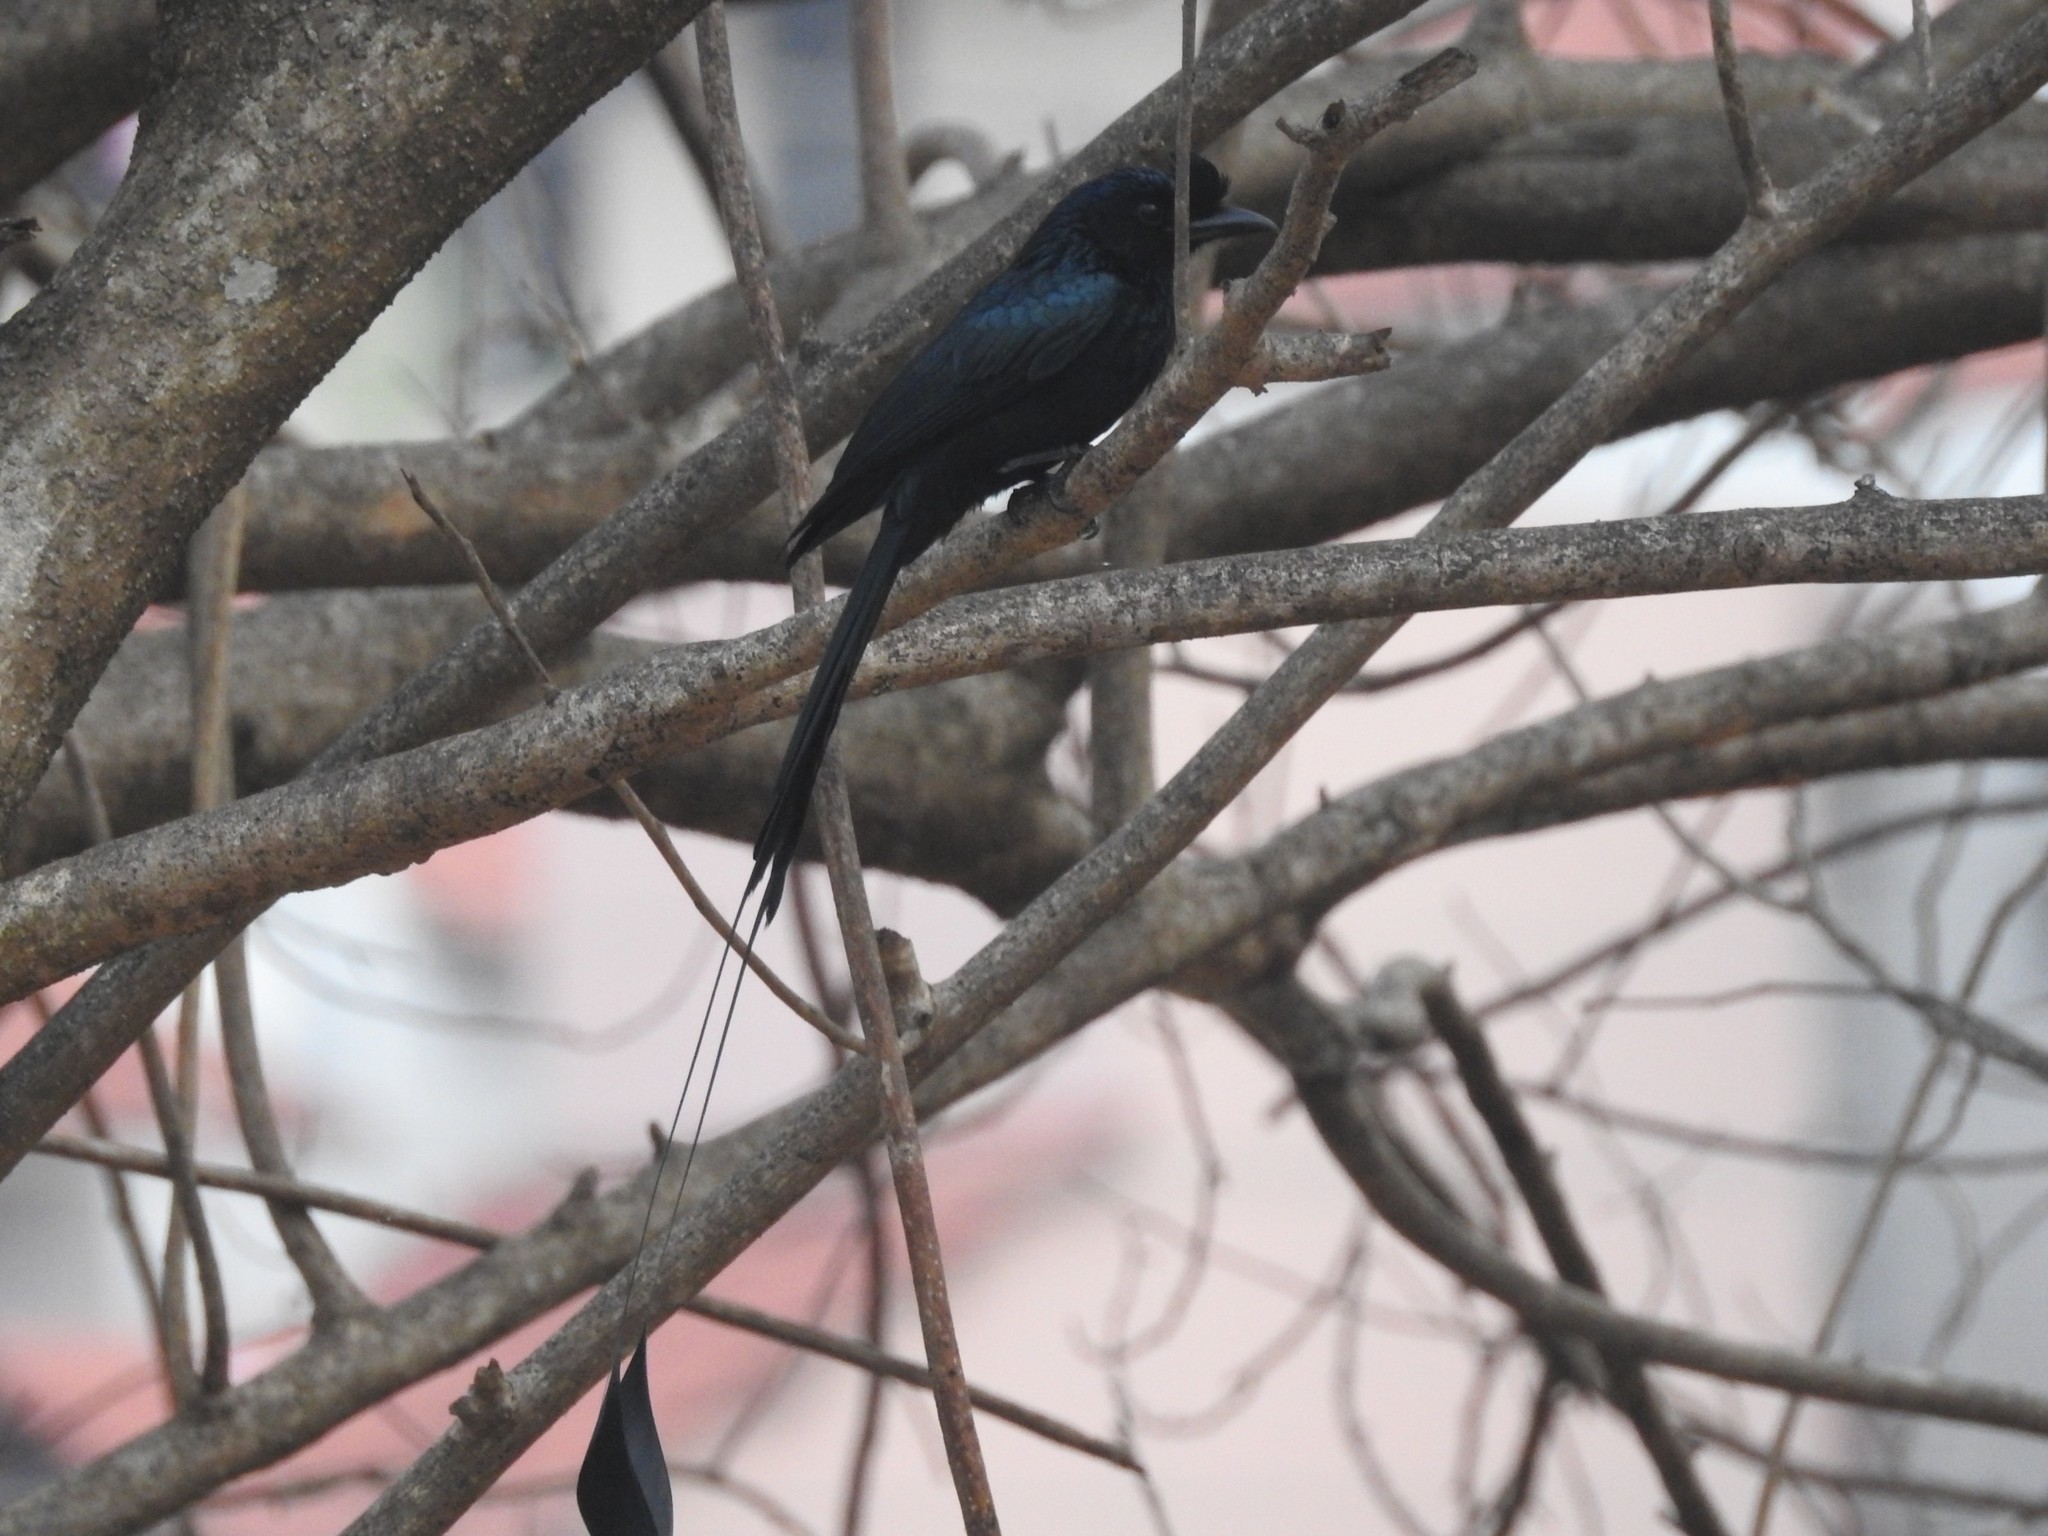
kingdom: Animalia
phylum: Chordata
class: Aves
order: Passeriformes
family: Dicruridae
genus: Dicrurus
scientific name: Dicrurus paradiseus
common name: Greater racket-tailed drongo
